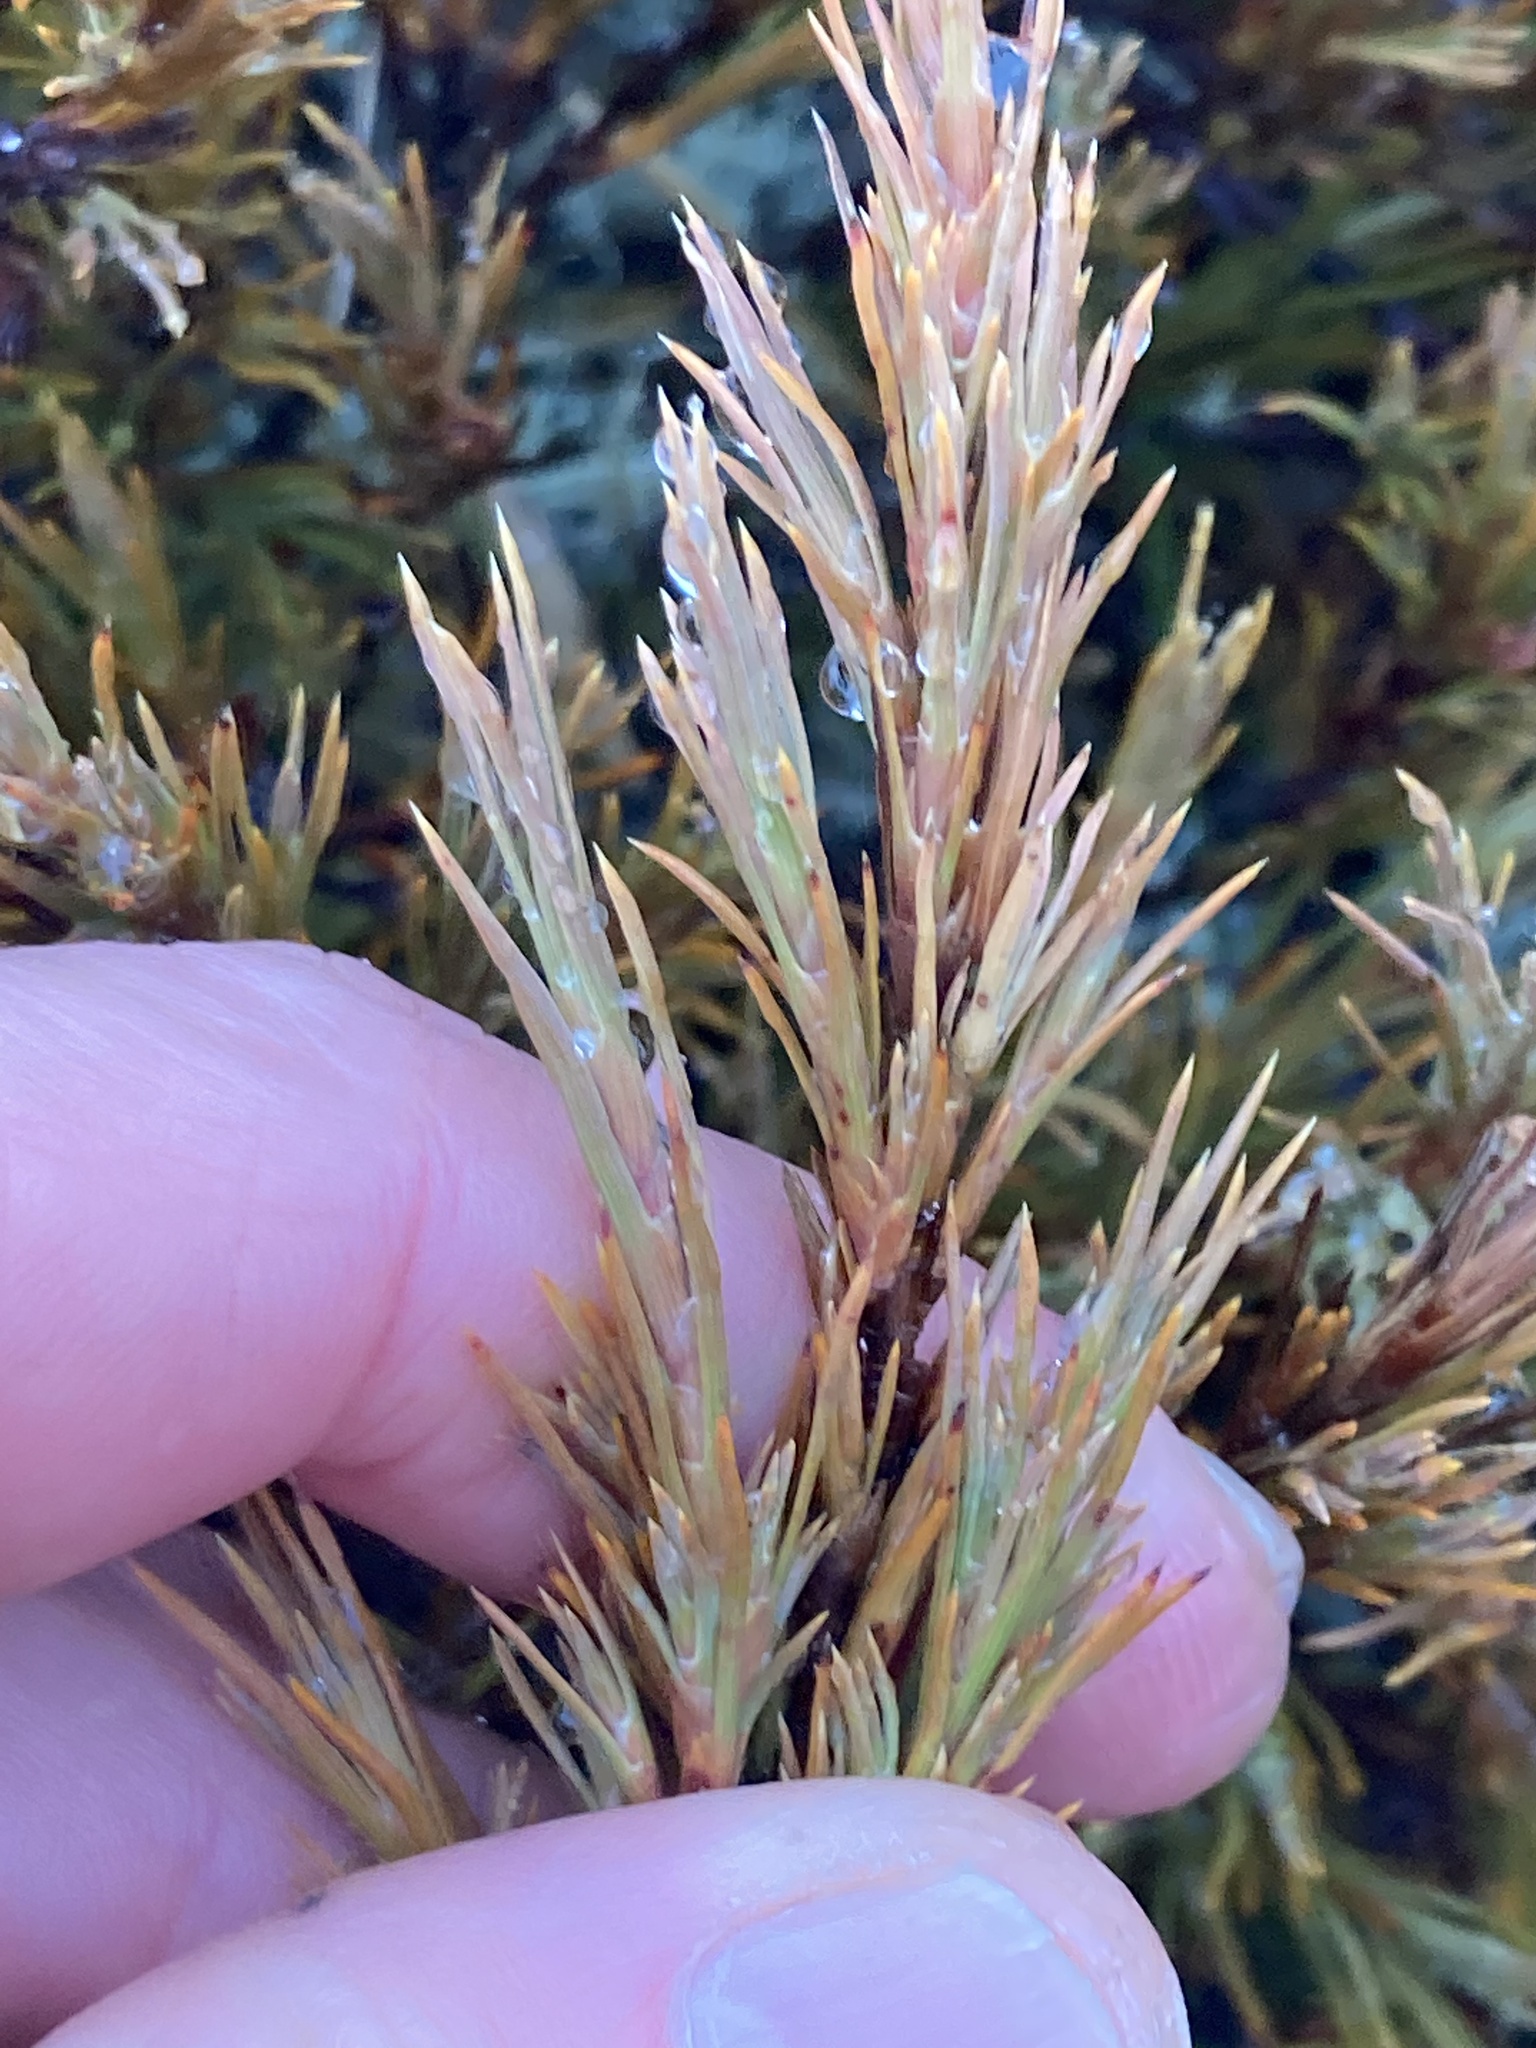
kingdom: Plantae
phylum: Tracheophyta
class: Magnoliopsida
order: Ericales
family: Ericaceae
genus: Dracophyllum
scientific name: Dracophyllum rosmarinifolium
